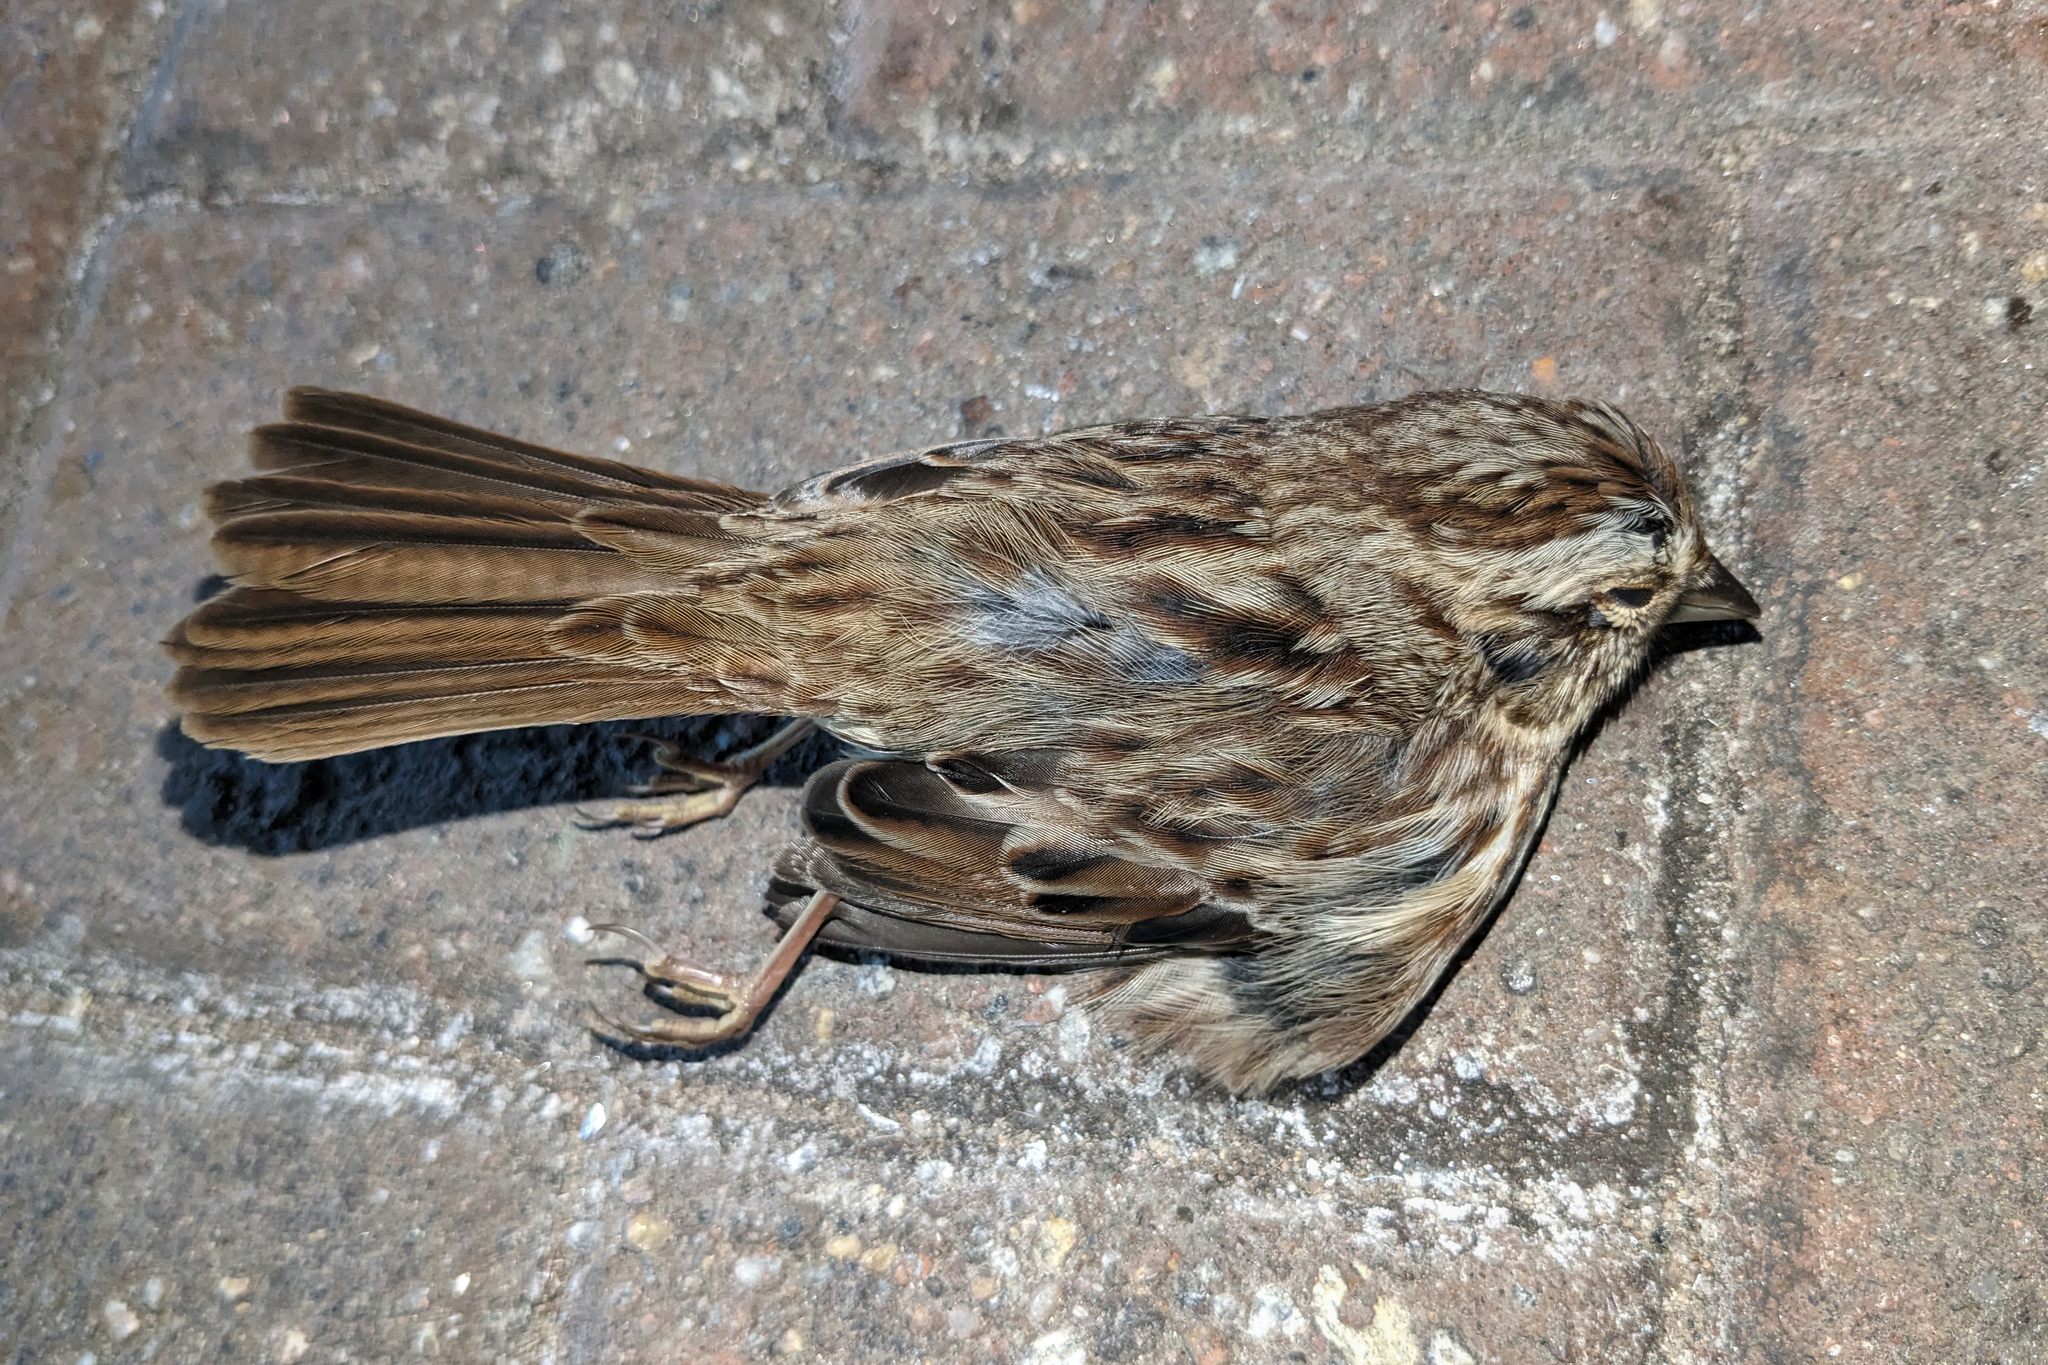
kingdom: Animalia
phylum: Chordata
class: Aves
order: Passeriformes
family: Passerellidae
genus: Melospiza
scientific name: Melospiza melodia
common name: Song sparrow
